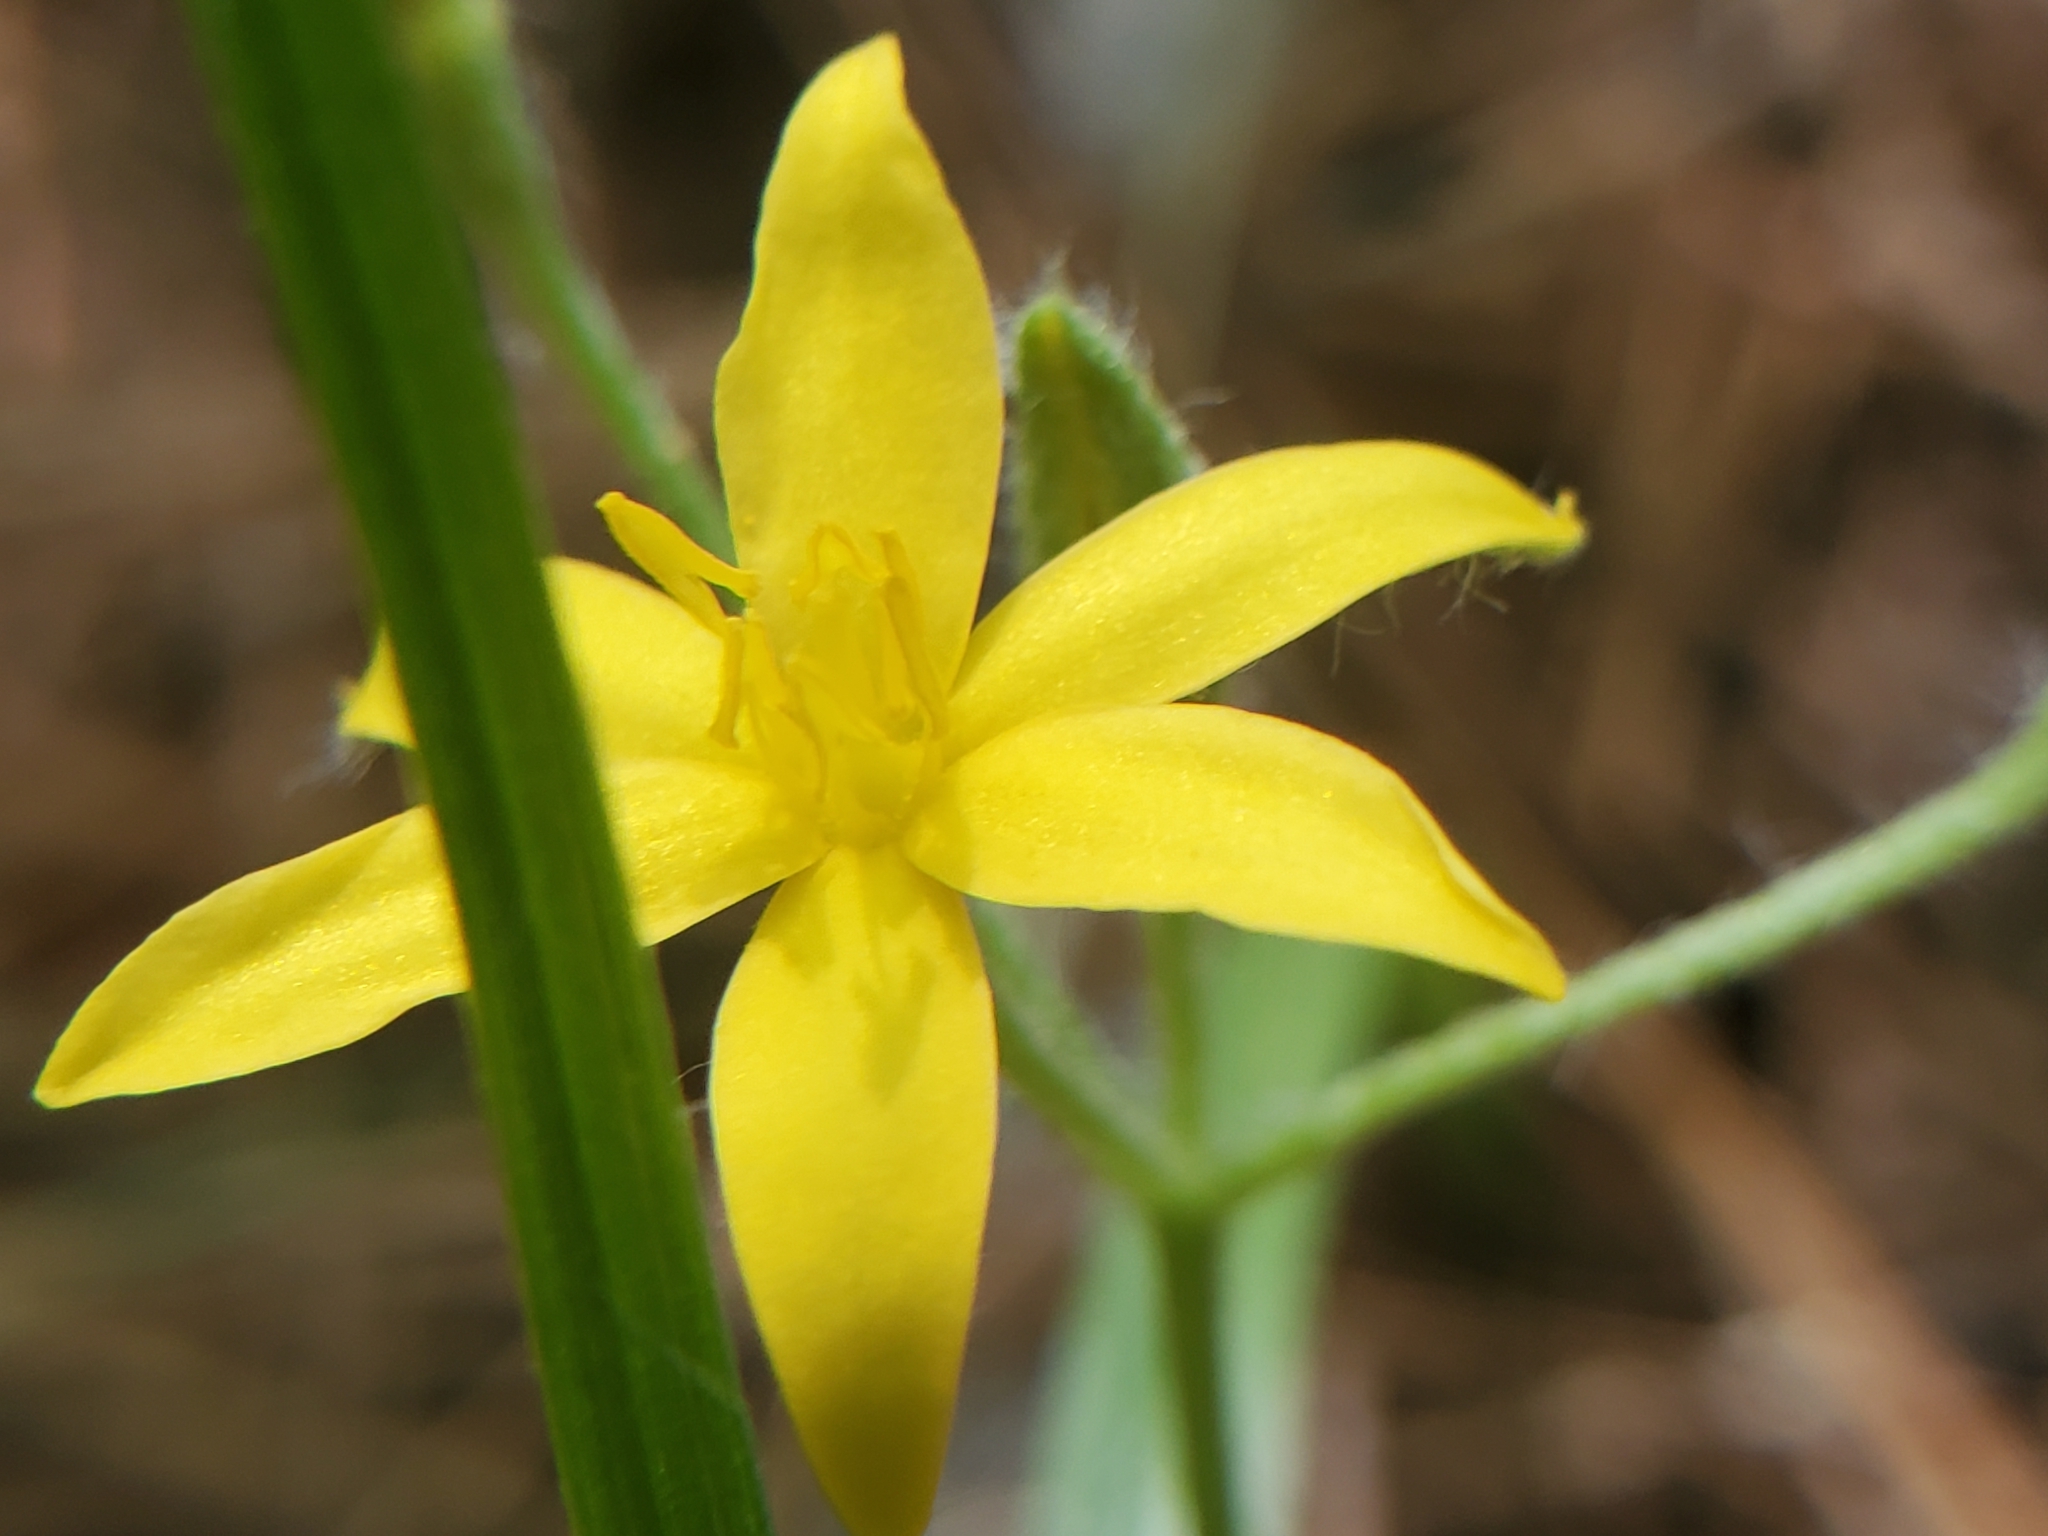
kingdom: Plantae
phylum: Tracheophyta
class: Liliopsida
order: Asparagales
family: Hypoxidaceae
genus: Hypoxis
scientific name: Hypoxis hirsuta
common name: Common goldstar
